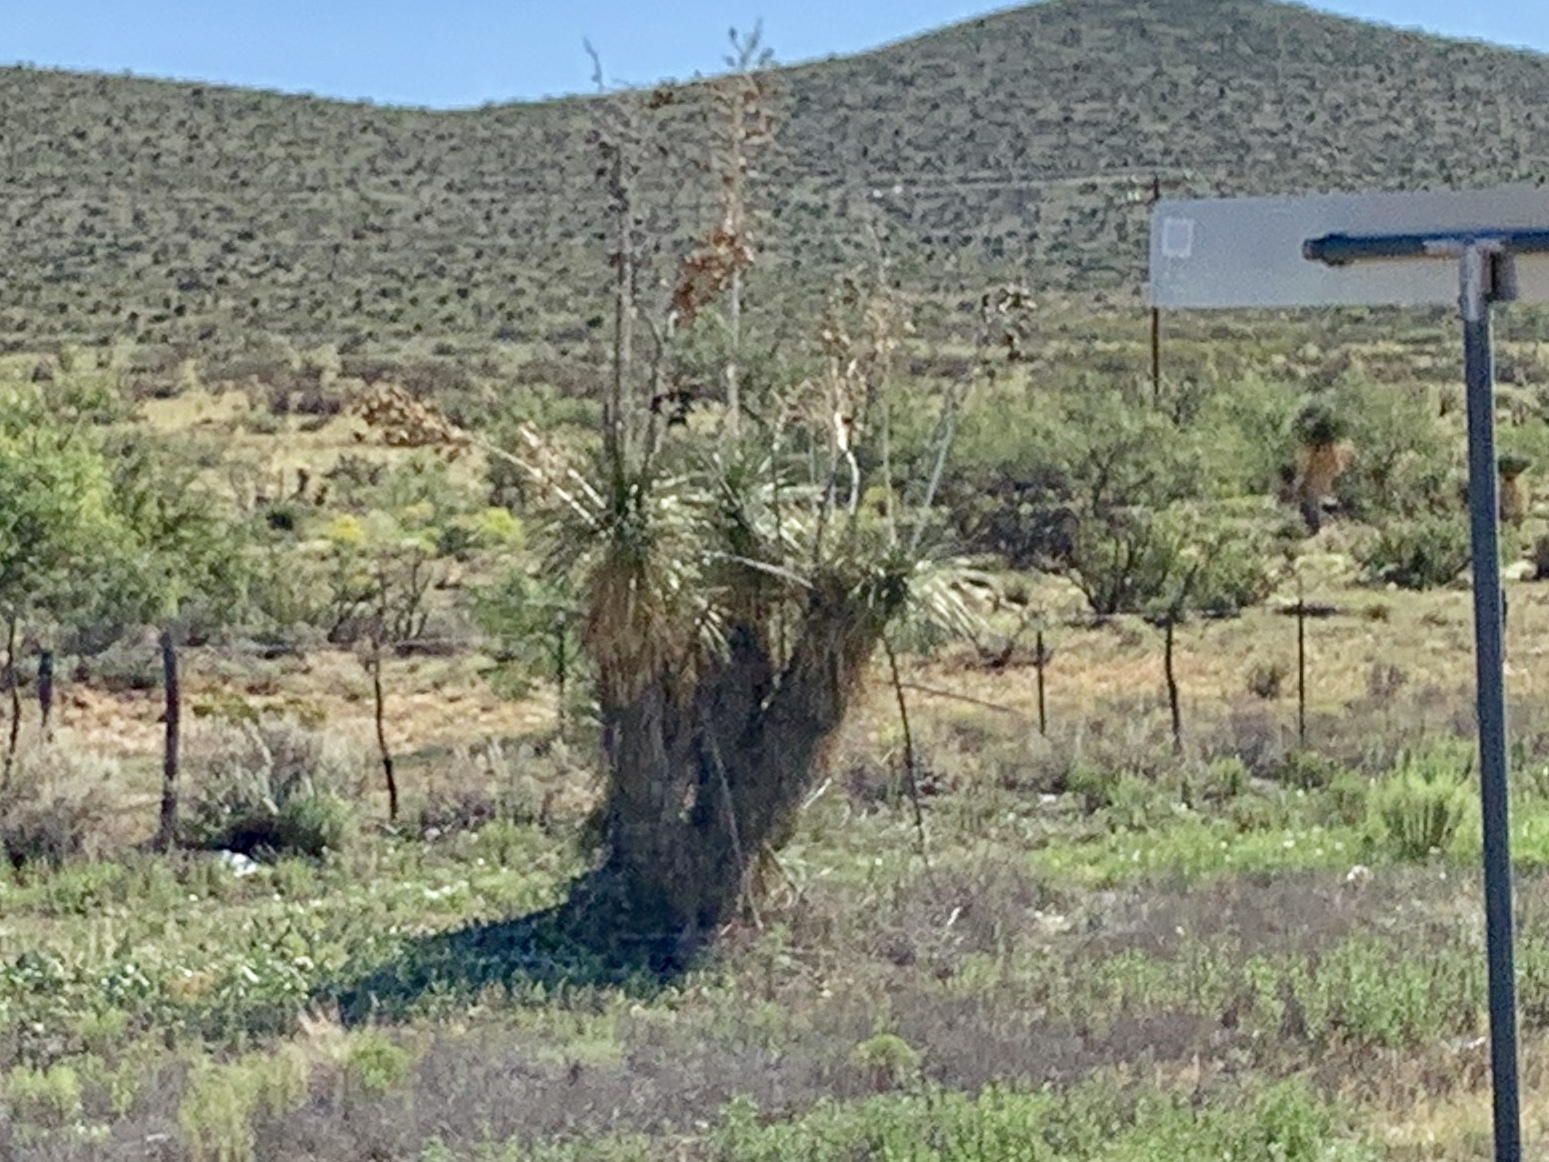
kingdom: Plantae
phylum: Tracheophyta
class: Liliopsida
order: Asparagales
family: Asparagaceae
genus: Yucca
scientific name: Yucca elata
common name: Palmella
